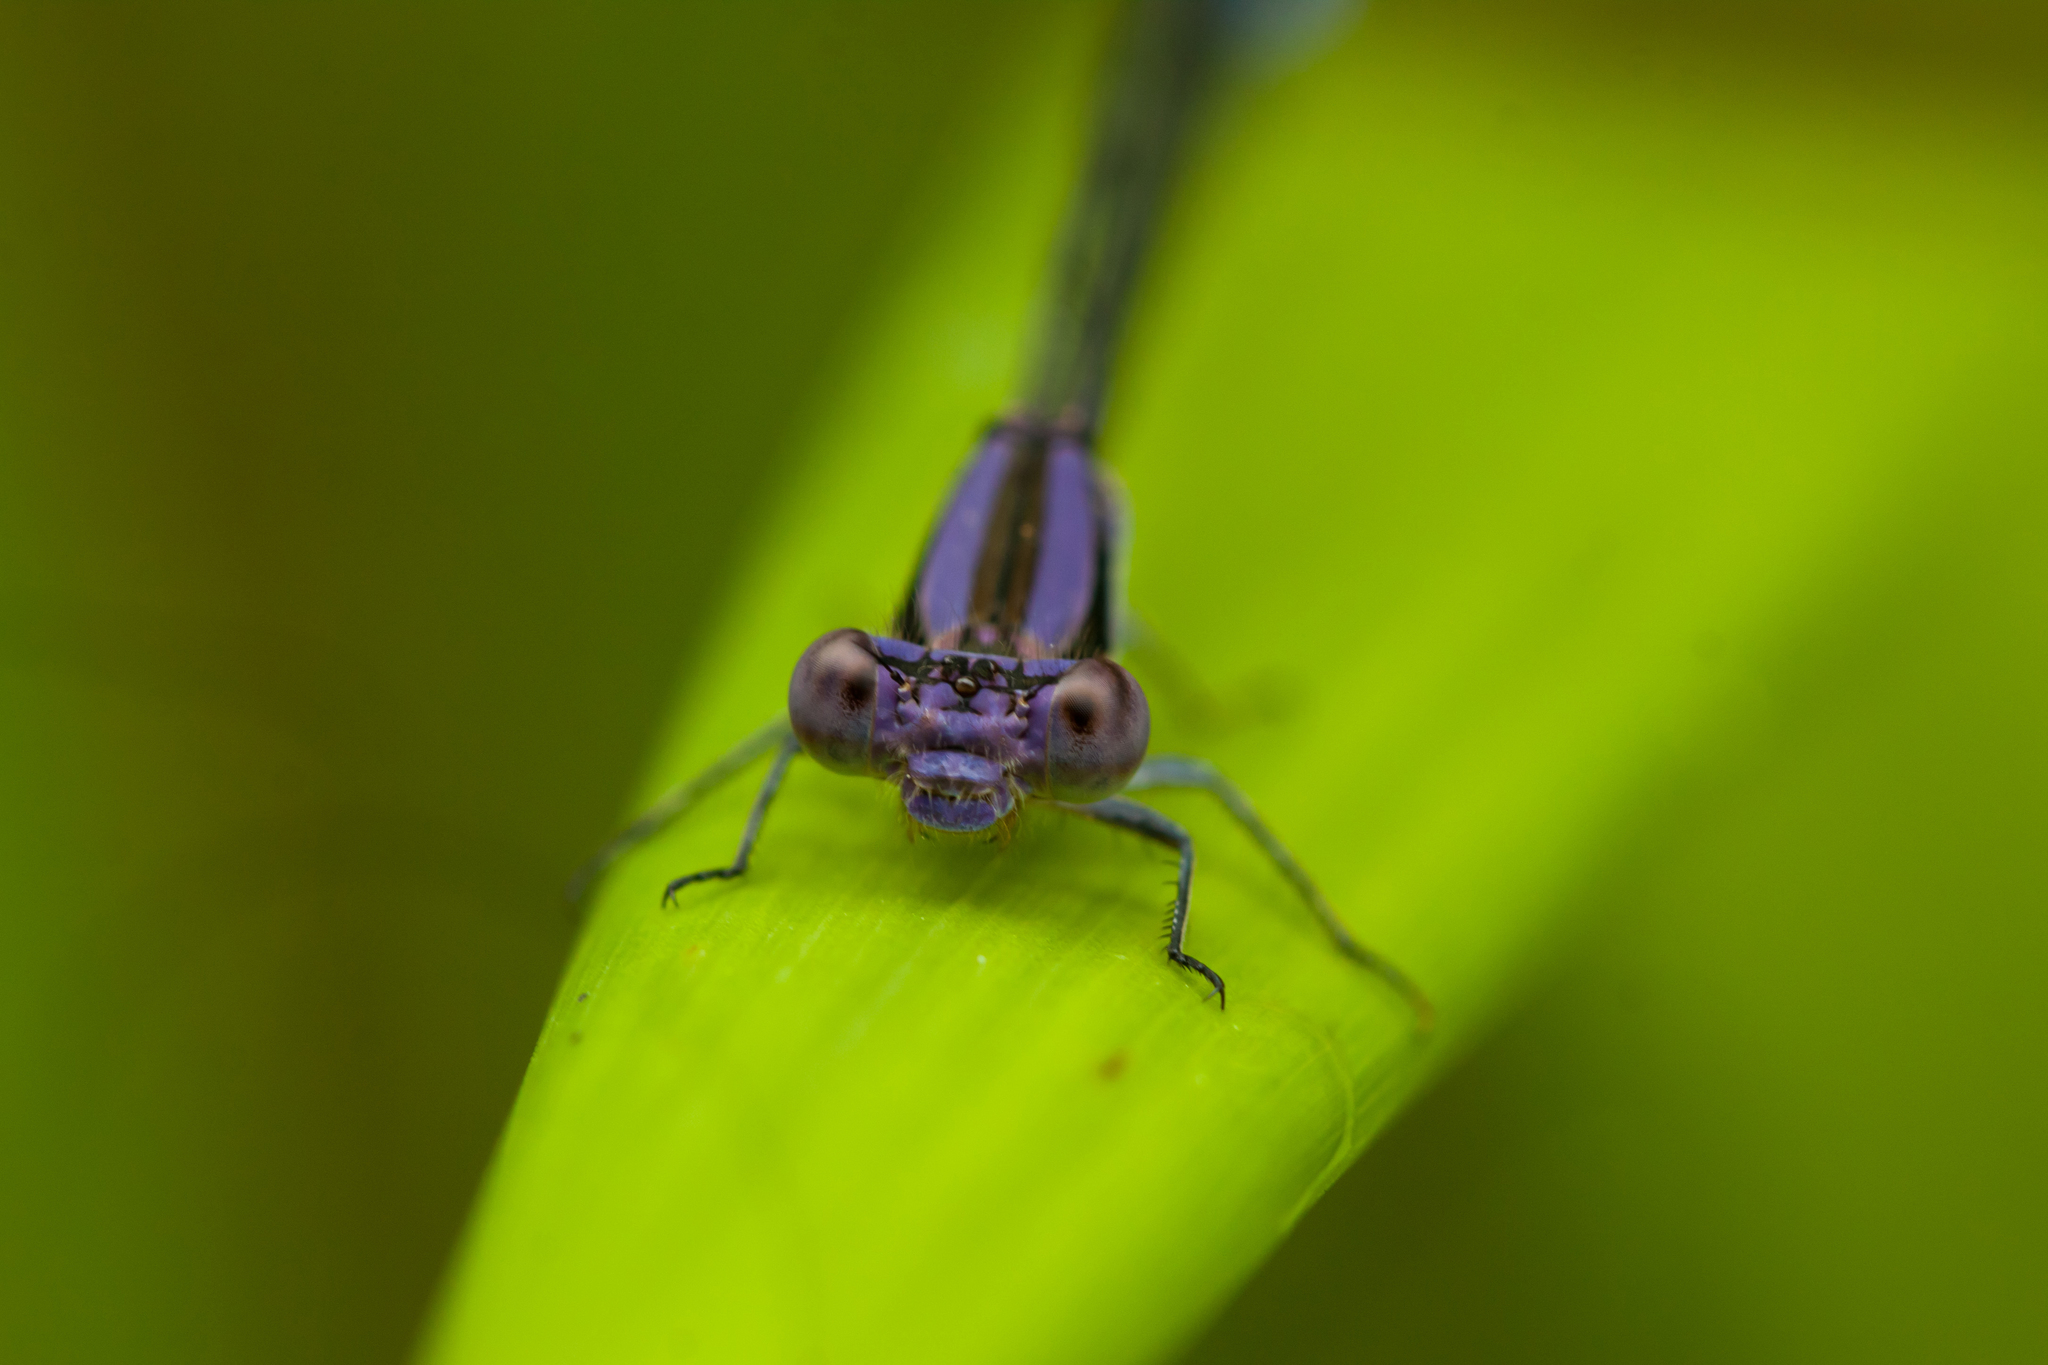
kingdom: Animalia
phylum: Arthropoda
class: Insecta
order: Odonata
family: Coenagrionidae
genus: Argia
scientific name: Argia fumipennis
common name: Variable dancer
